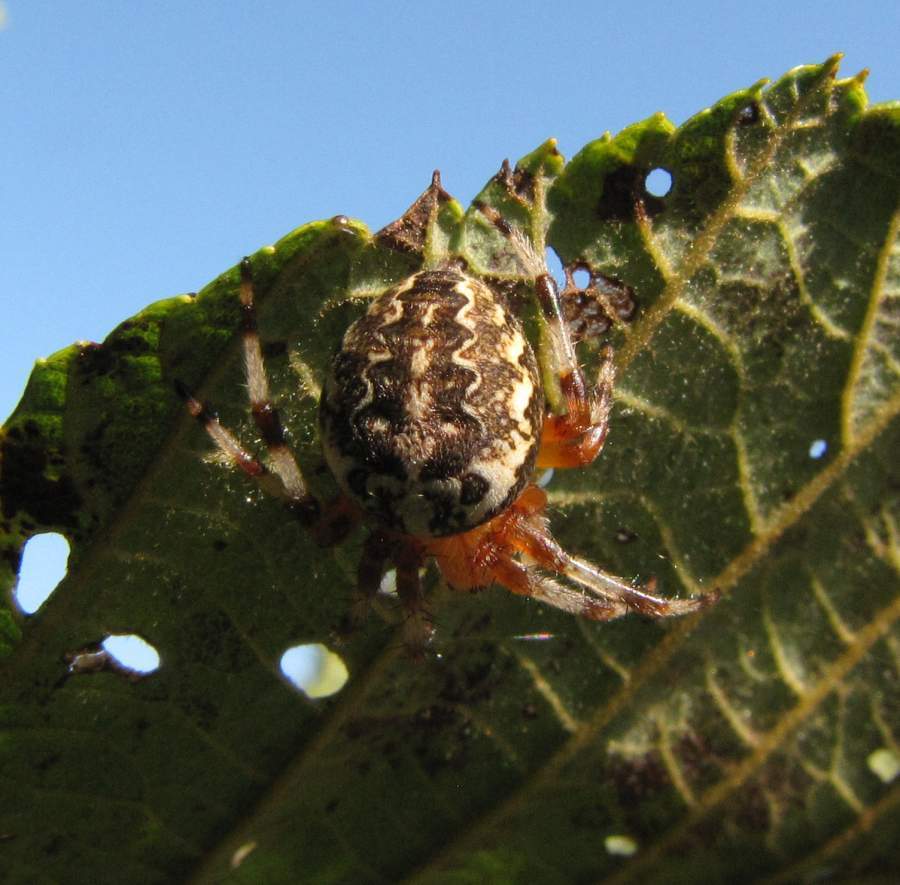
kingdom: Animalia
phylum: Arthropoda
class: Arachnida
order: Araneae
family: Araneidae
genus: Araneus
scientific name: Araneus marmoreus
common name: Marbled orbweaver
